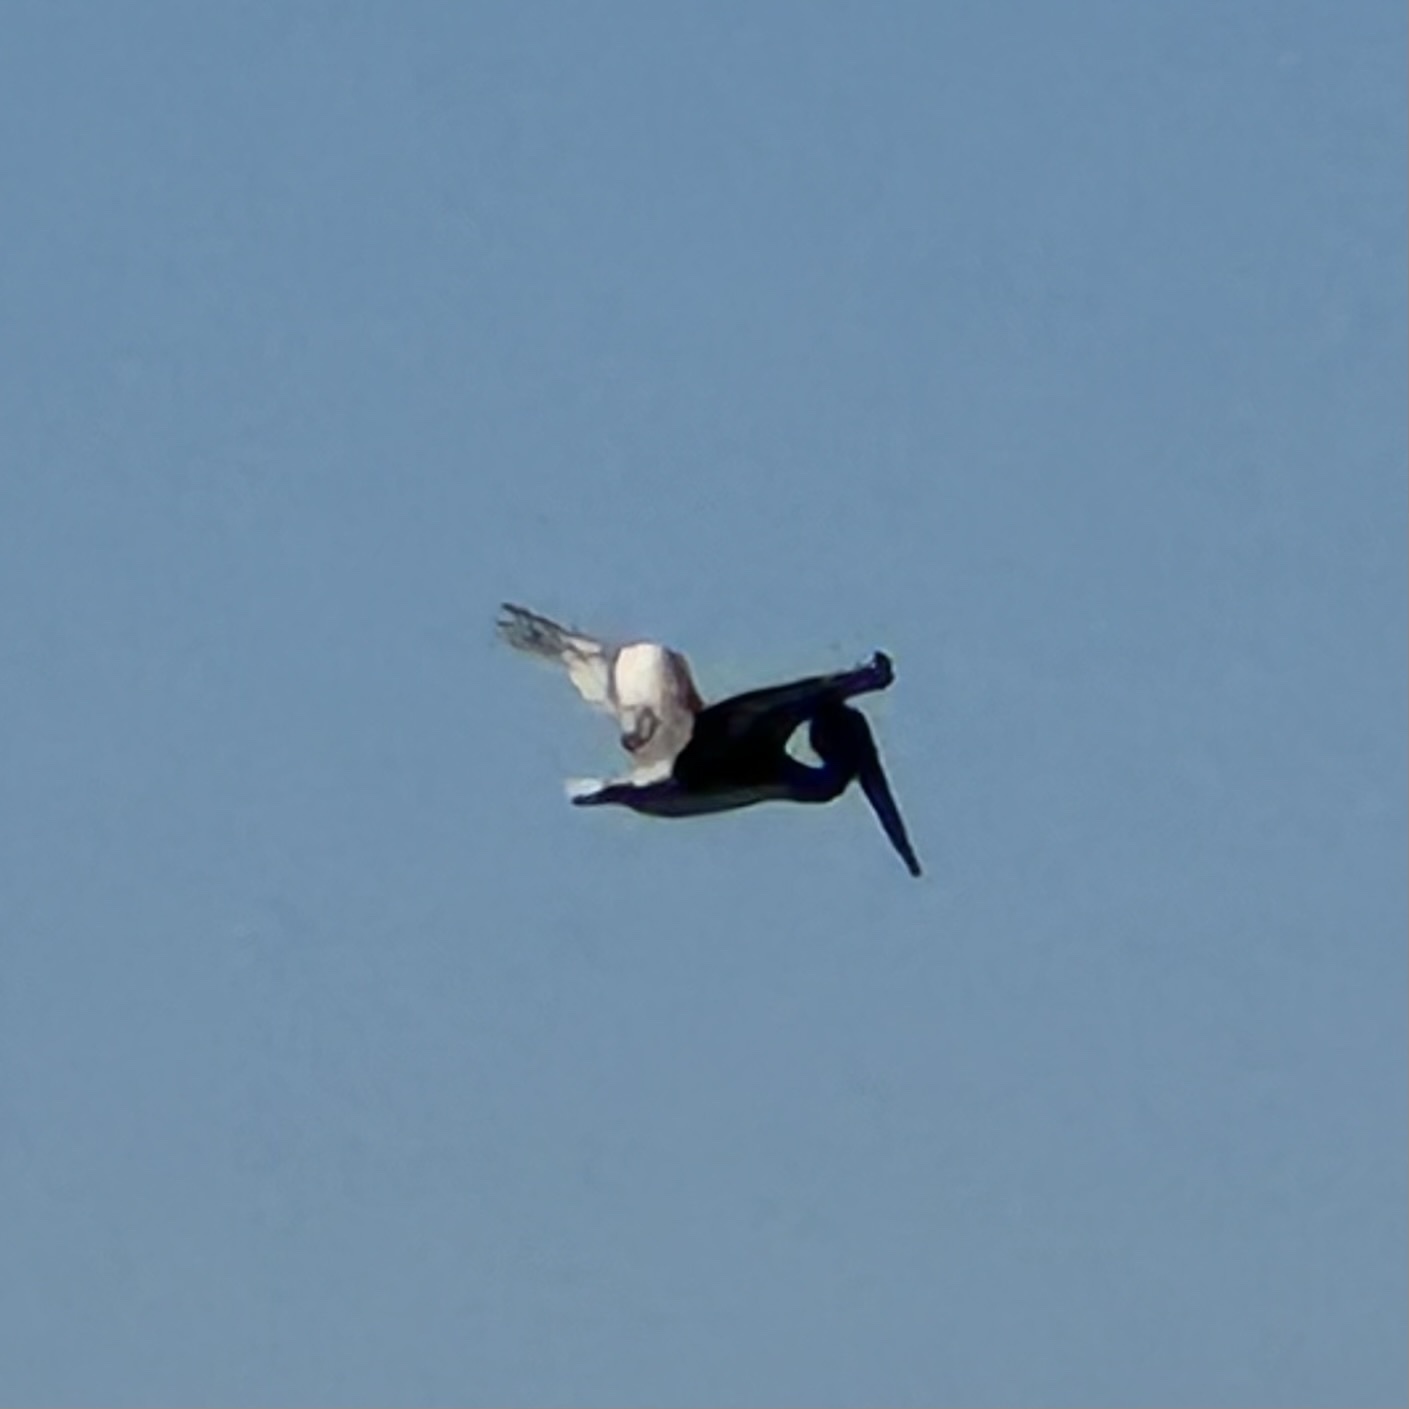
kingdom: Animalia
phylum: Chordata
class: Aves
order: Pelecaniformes
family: Pelecanidae
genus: Pelecanus
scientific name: Pelecanus occidentalis
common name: Brown pelican
